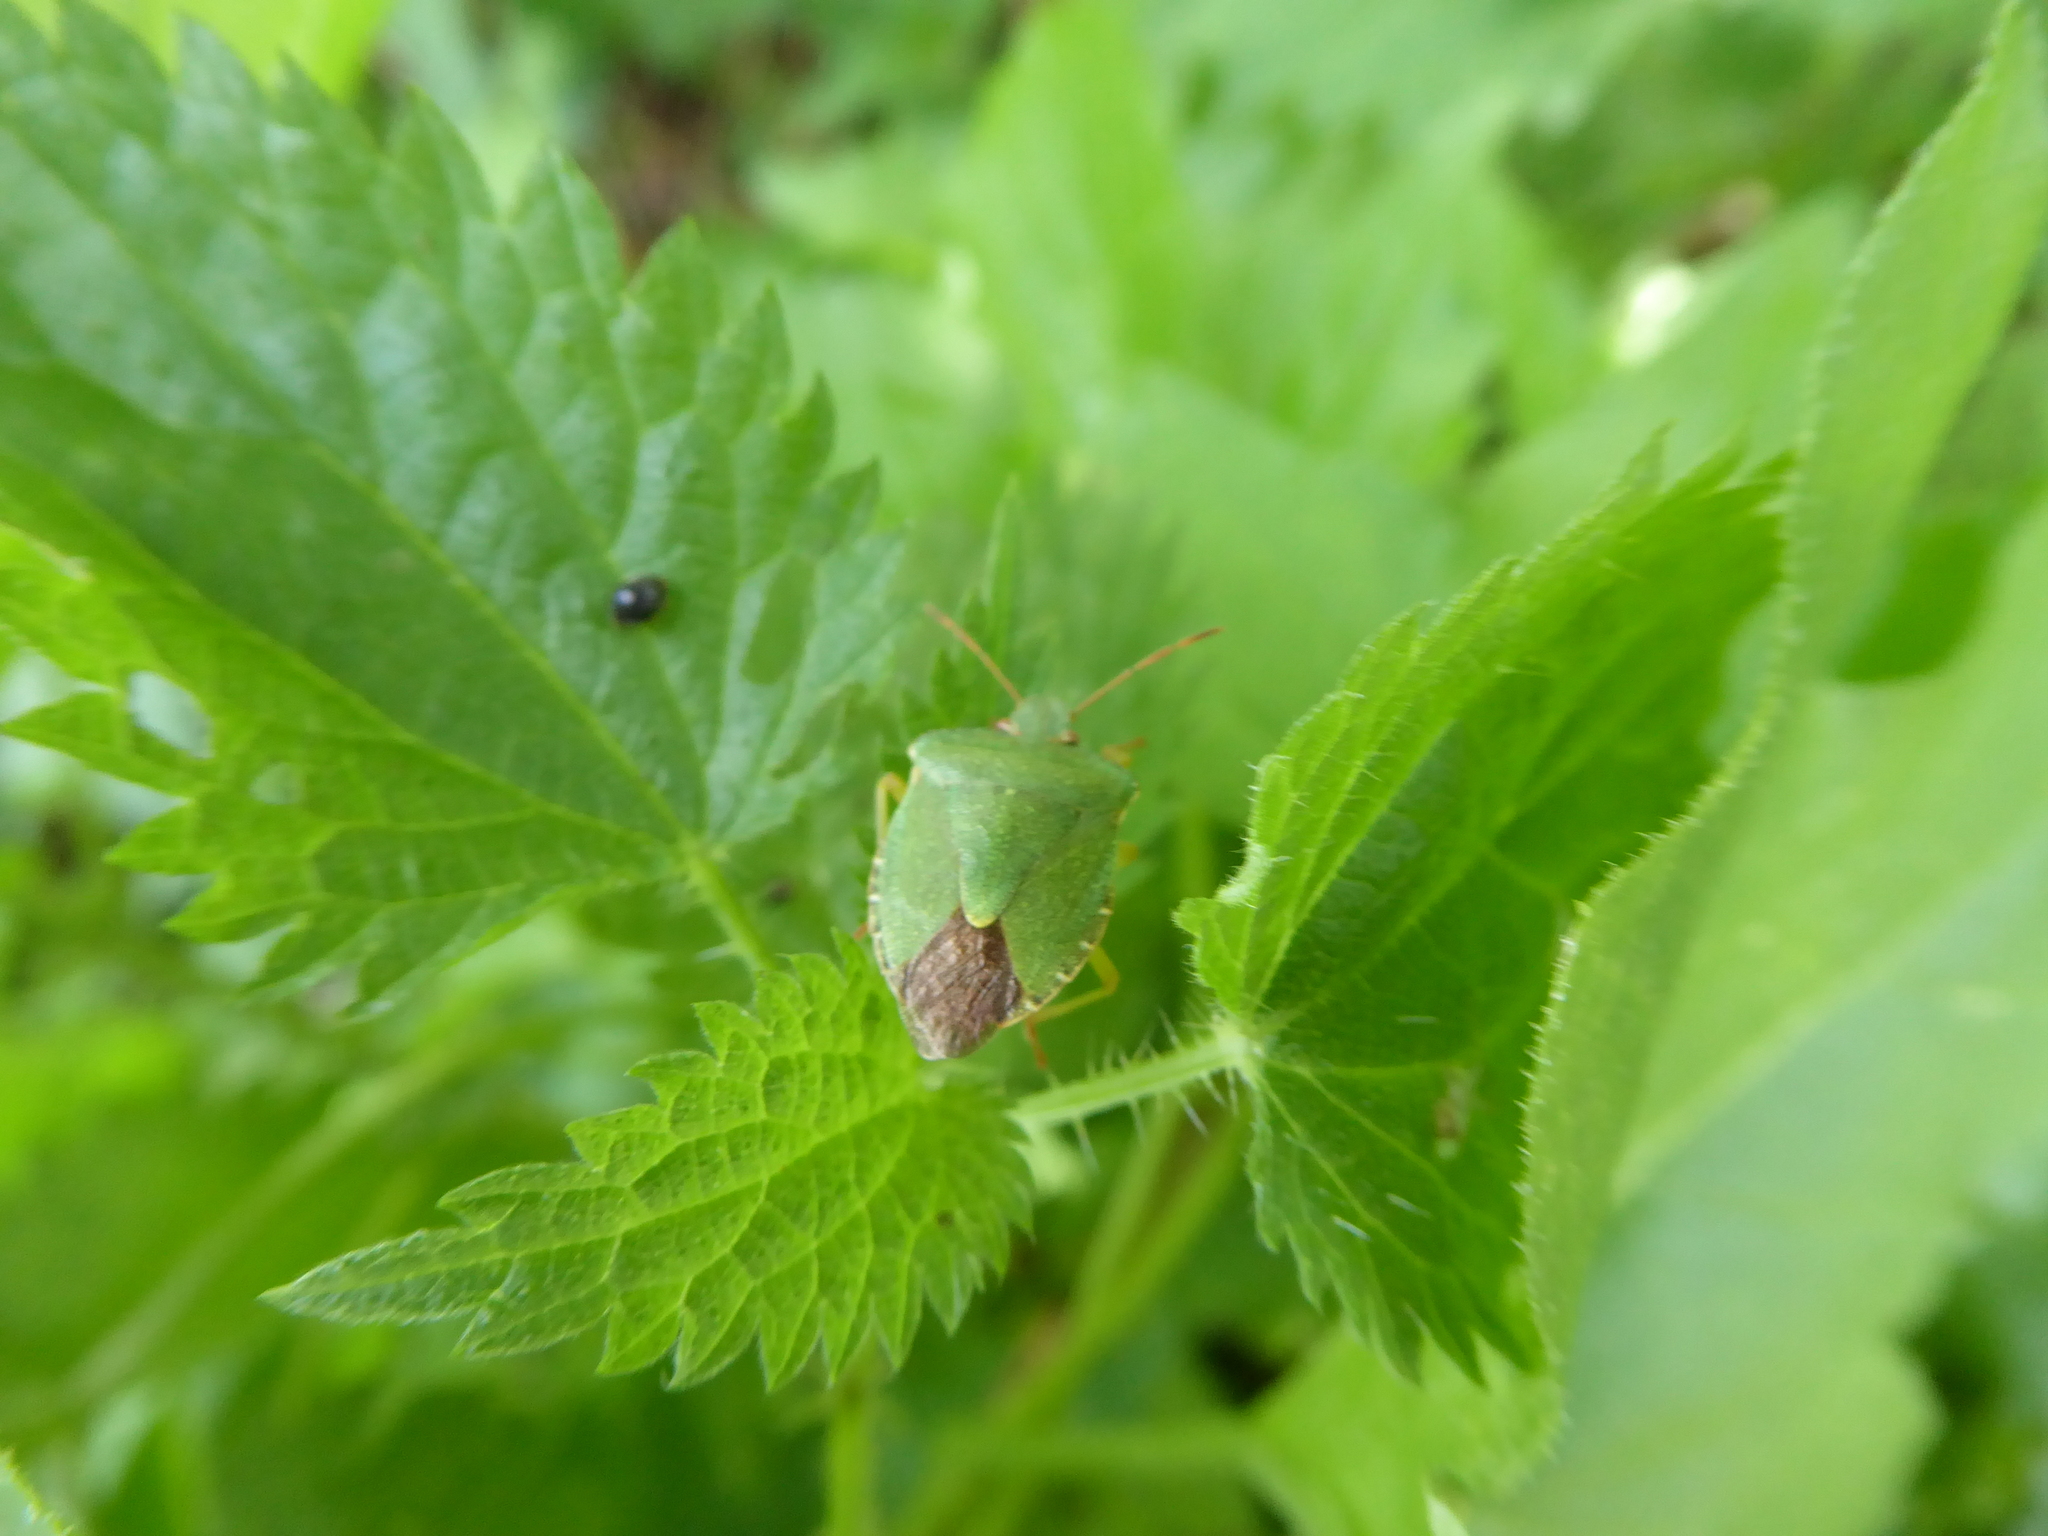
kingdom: Animalia
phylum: Arthropoda
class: Insecta
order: Hemiptera
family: Pentatomidae
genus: Palomena
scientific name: Palomena prasina
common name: Green shieldbug
